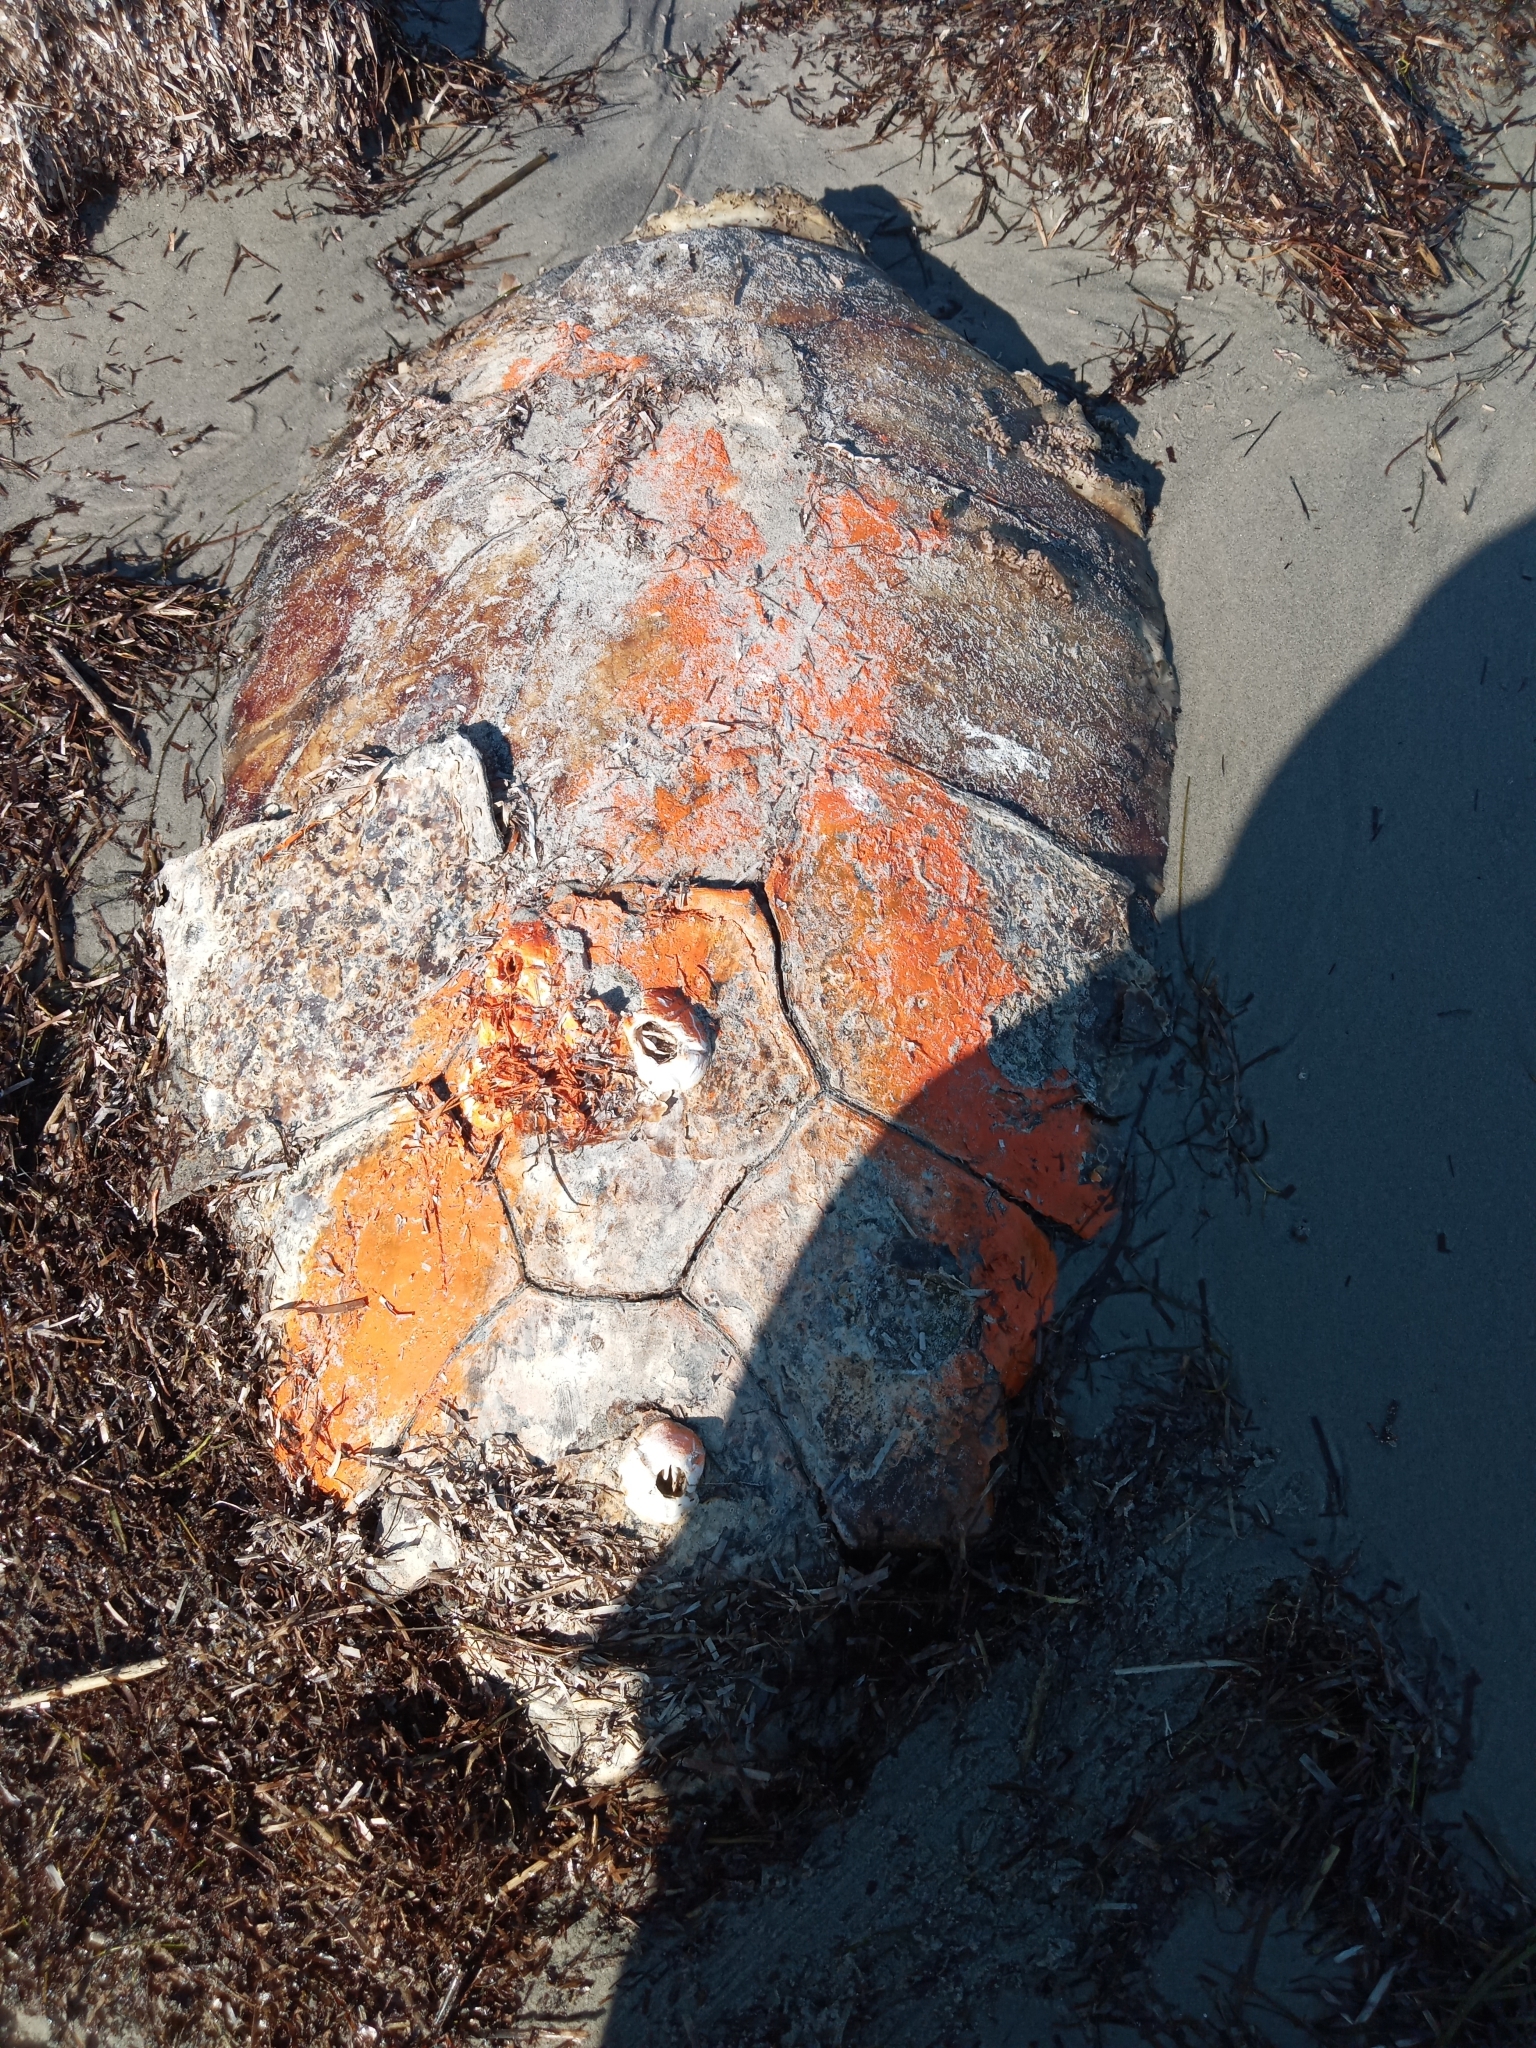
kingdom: Animalia
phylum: Chordata
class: Testudines
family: Cheloniidae
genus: Caretta
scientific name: Caretta caretta
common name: Loggerhead sea turtle
